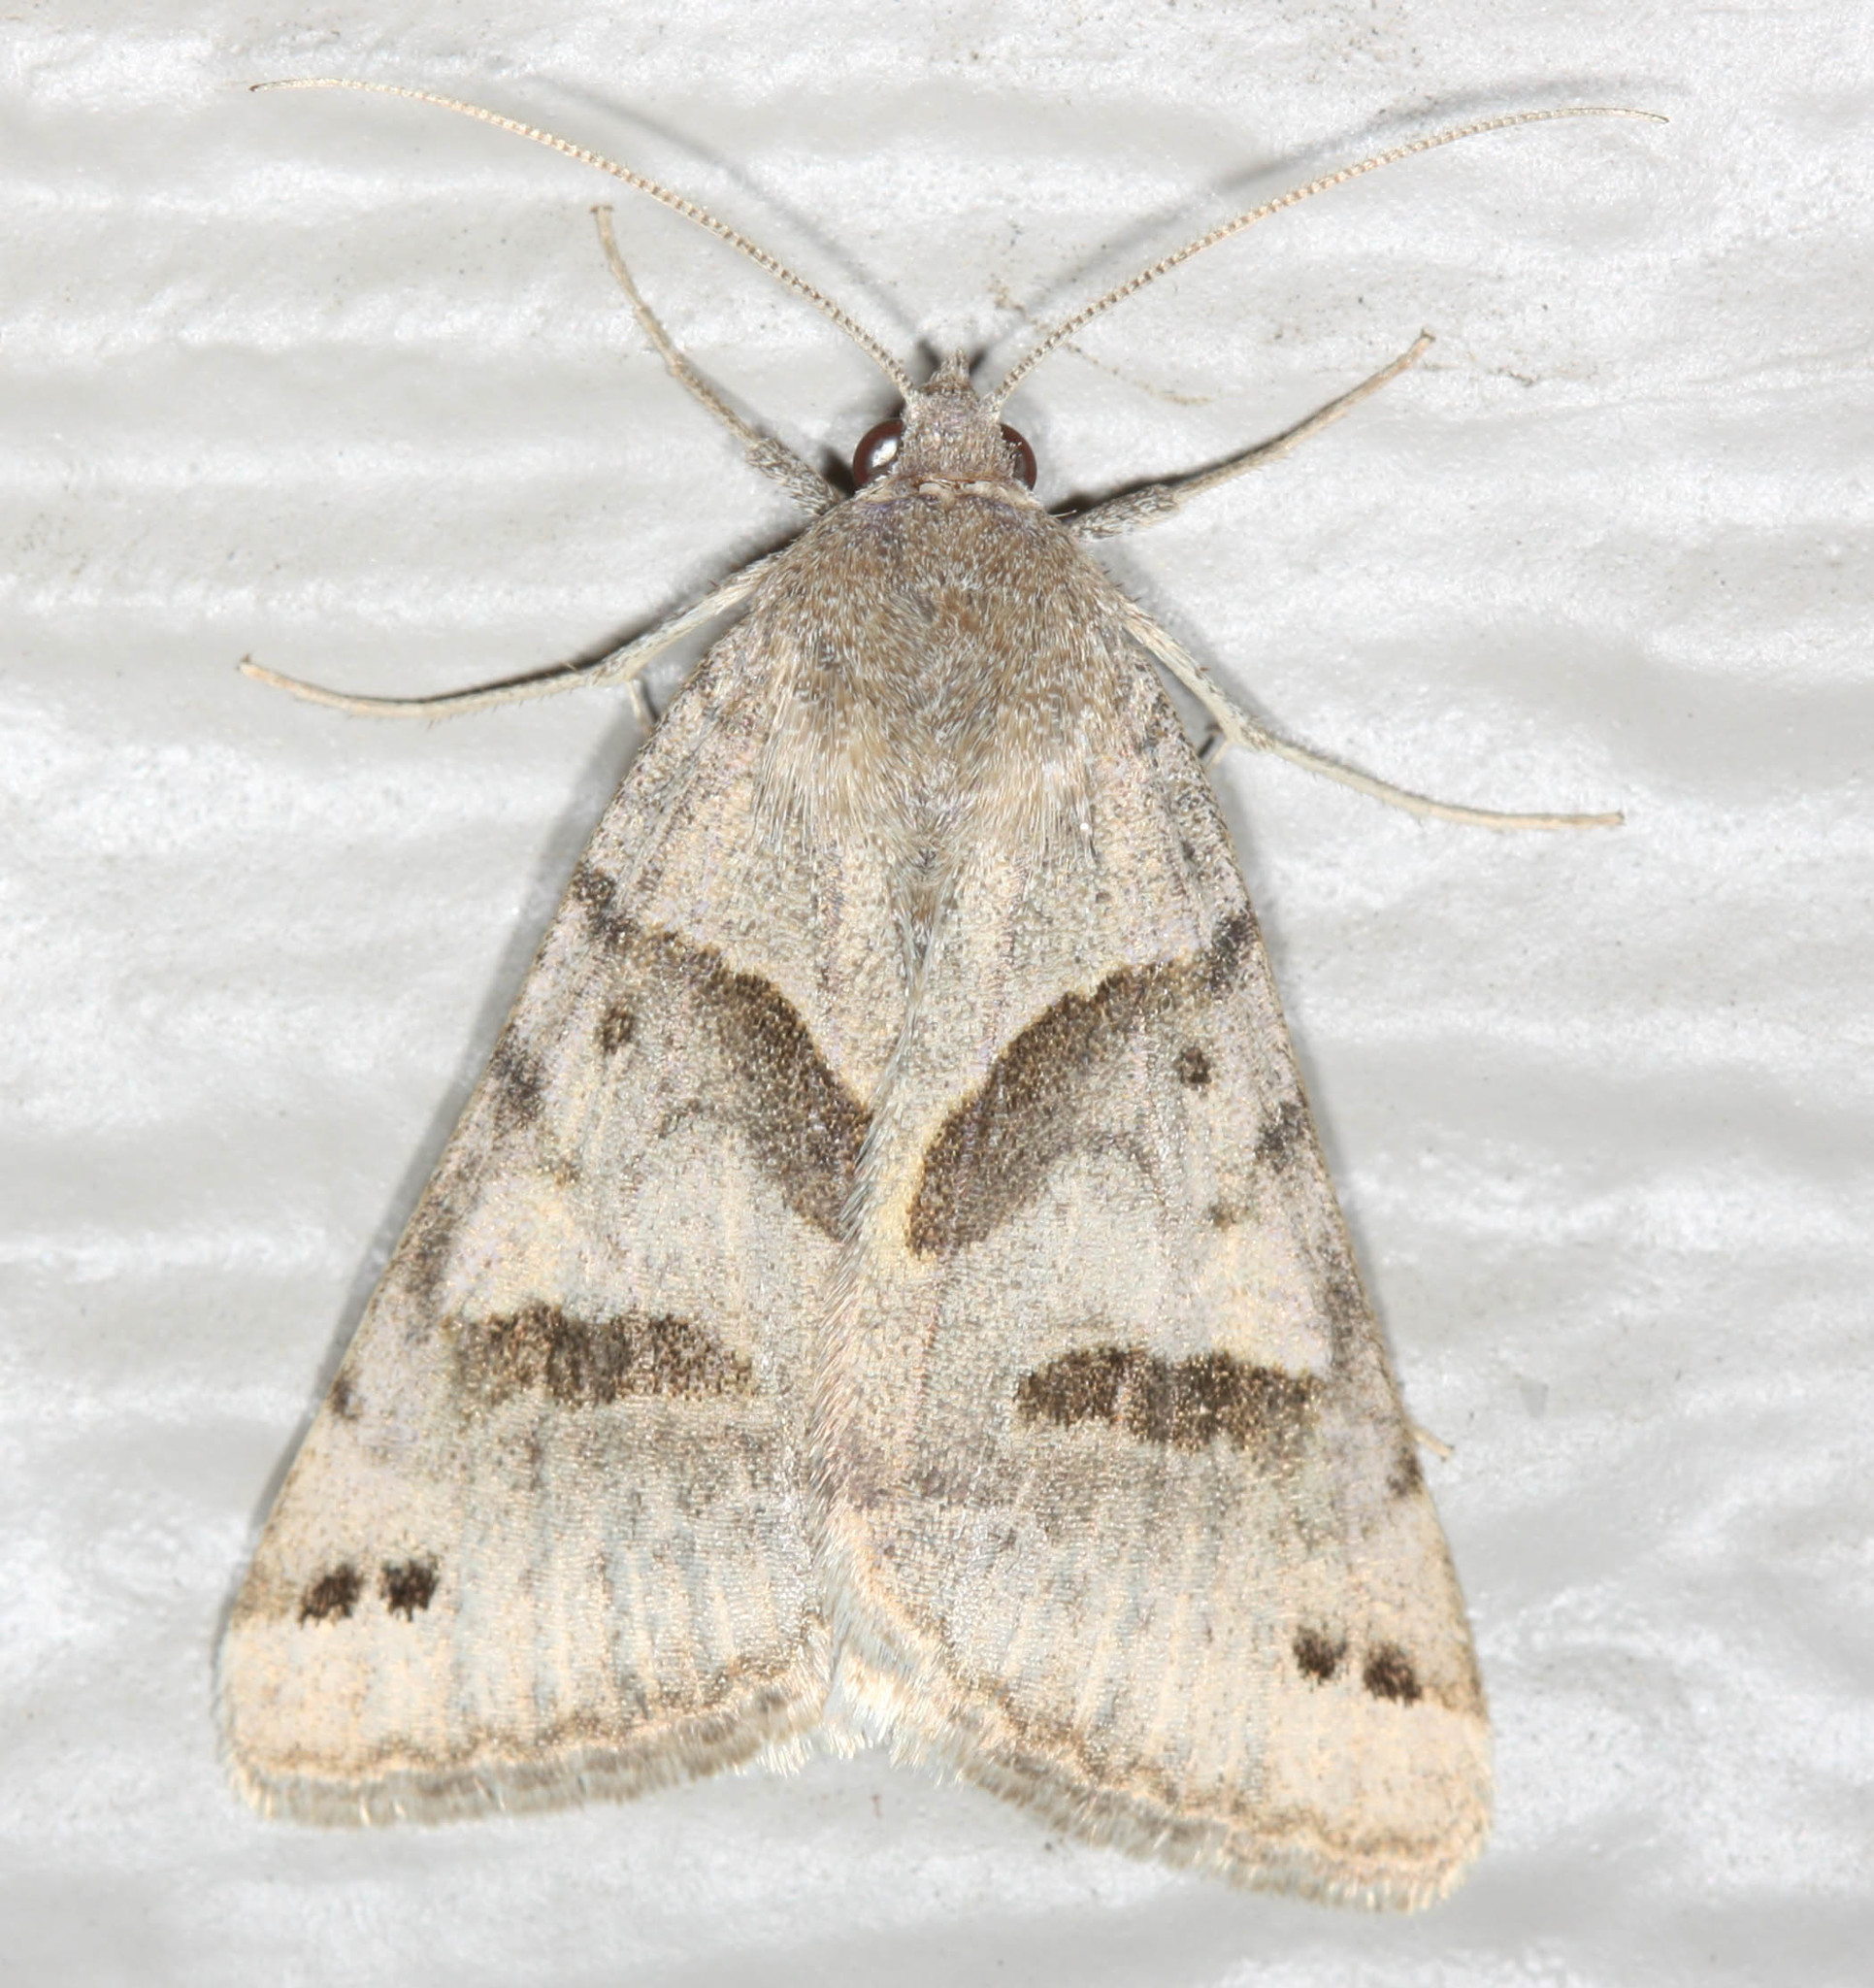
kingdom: Animalia
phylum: Arthropoda
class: Insecta
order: Lepidoptera
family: Erebidae
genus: Caenurgina
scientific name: Caenurgina erechtea
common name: Forage looper moth
